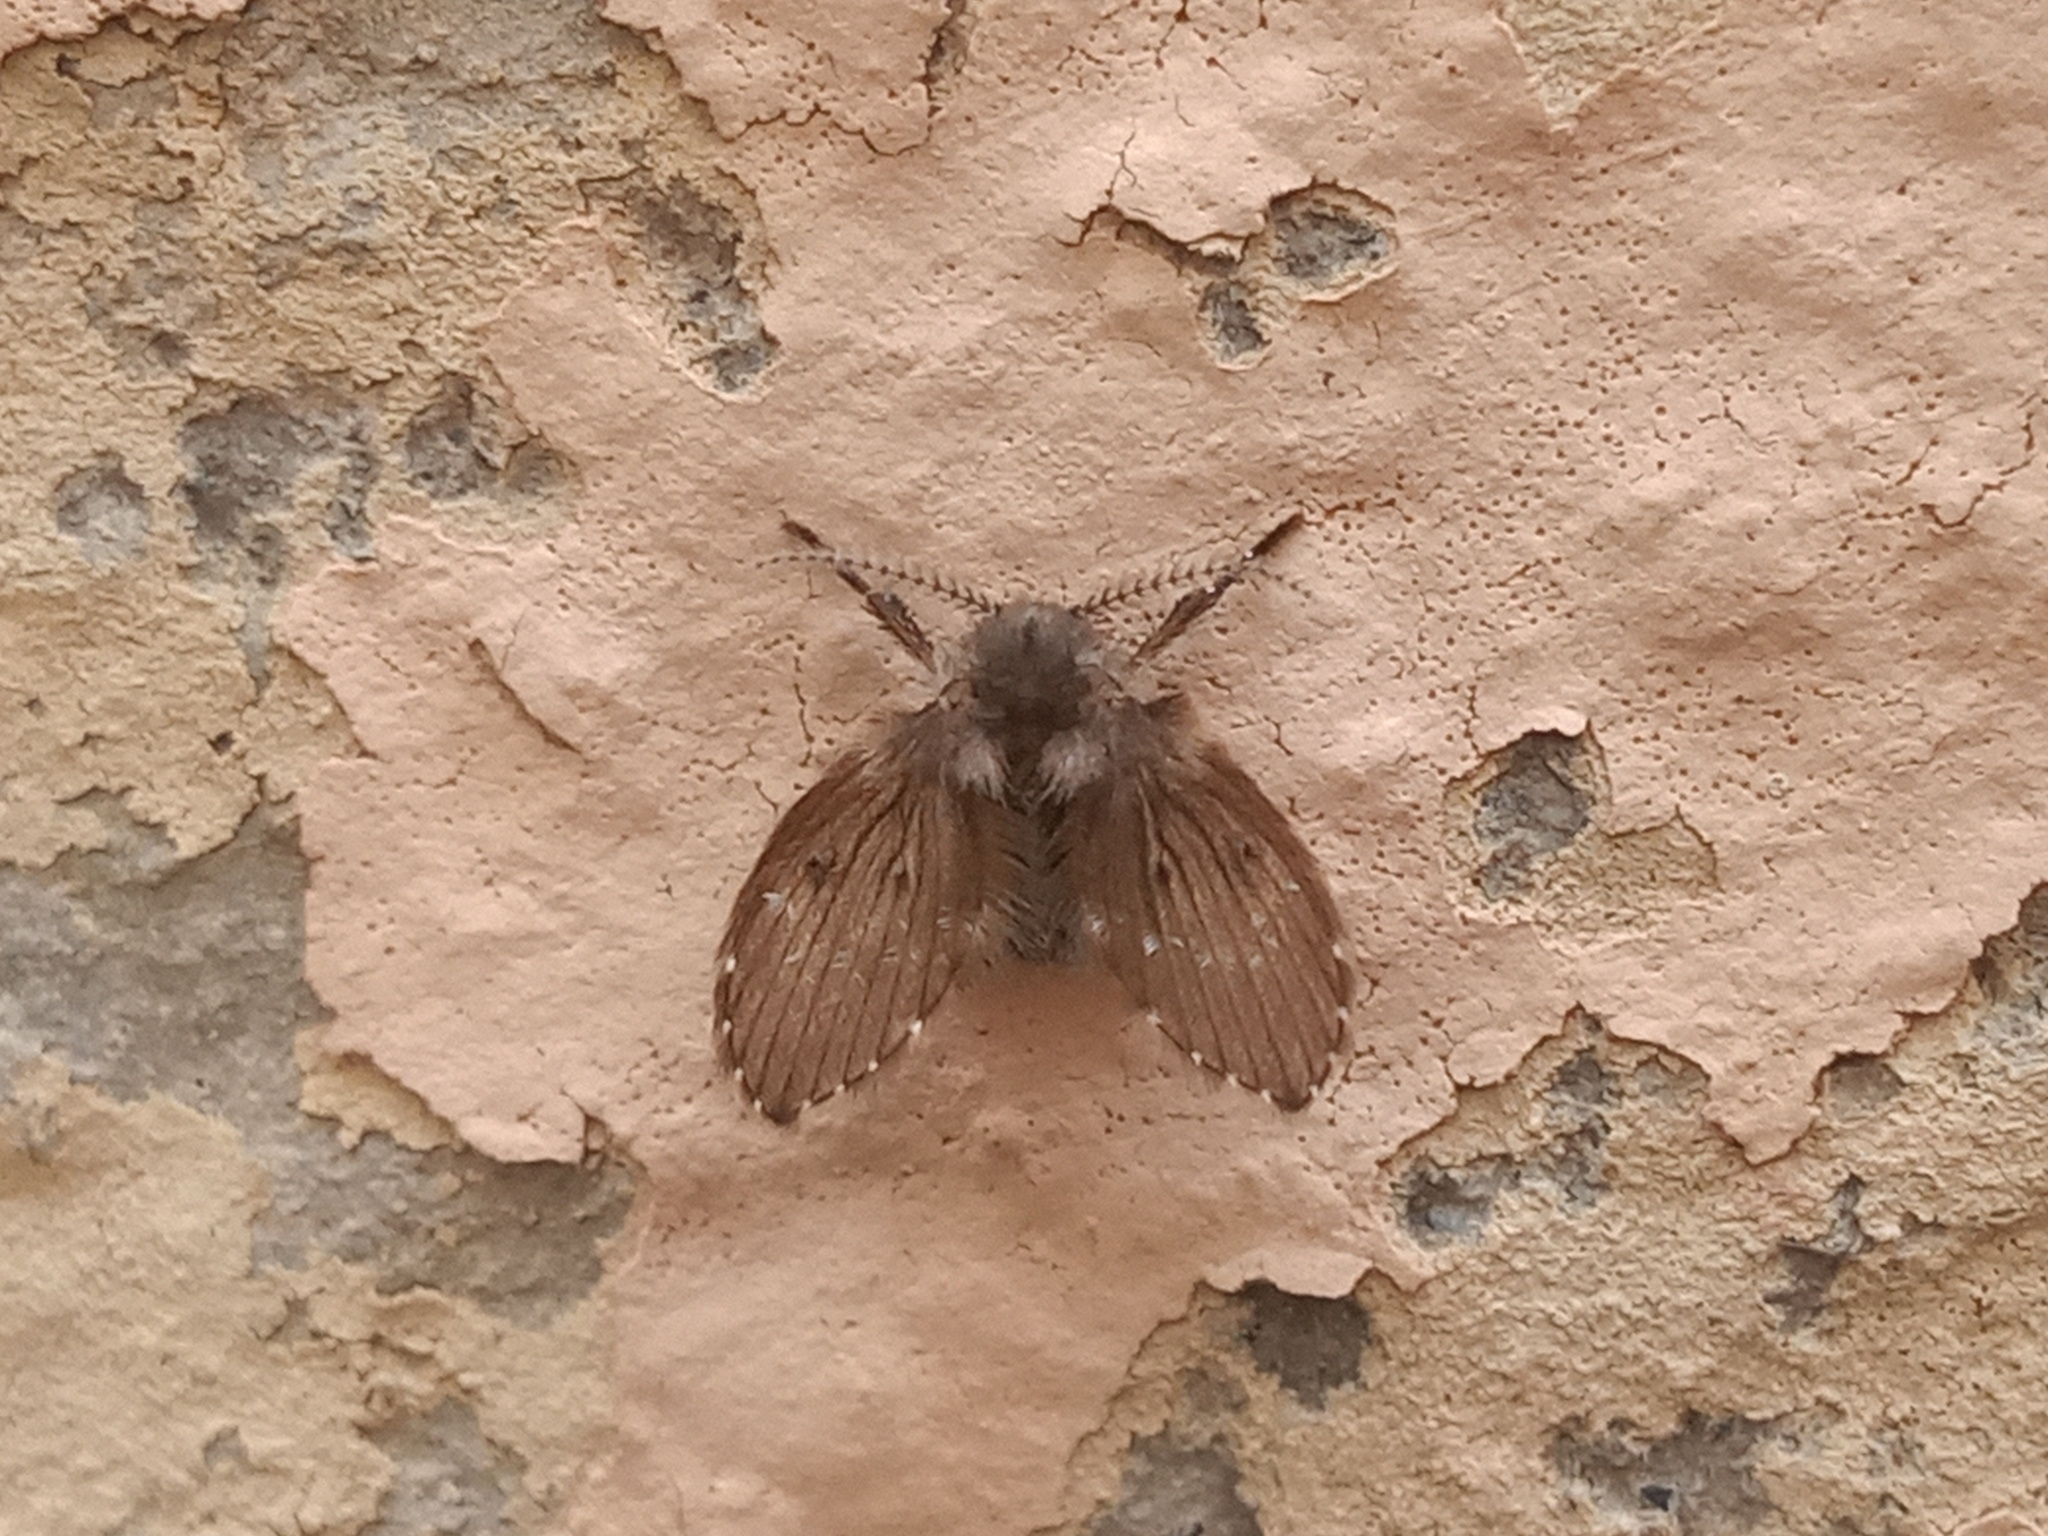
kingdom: Animalia
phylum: Arthropoda
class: Insecta
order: Diptera
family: Psychodidae
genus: Clogmia
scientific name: Clogmia albipunctatus
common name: White-spotted moth fly
